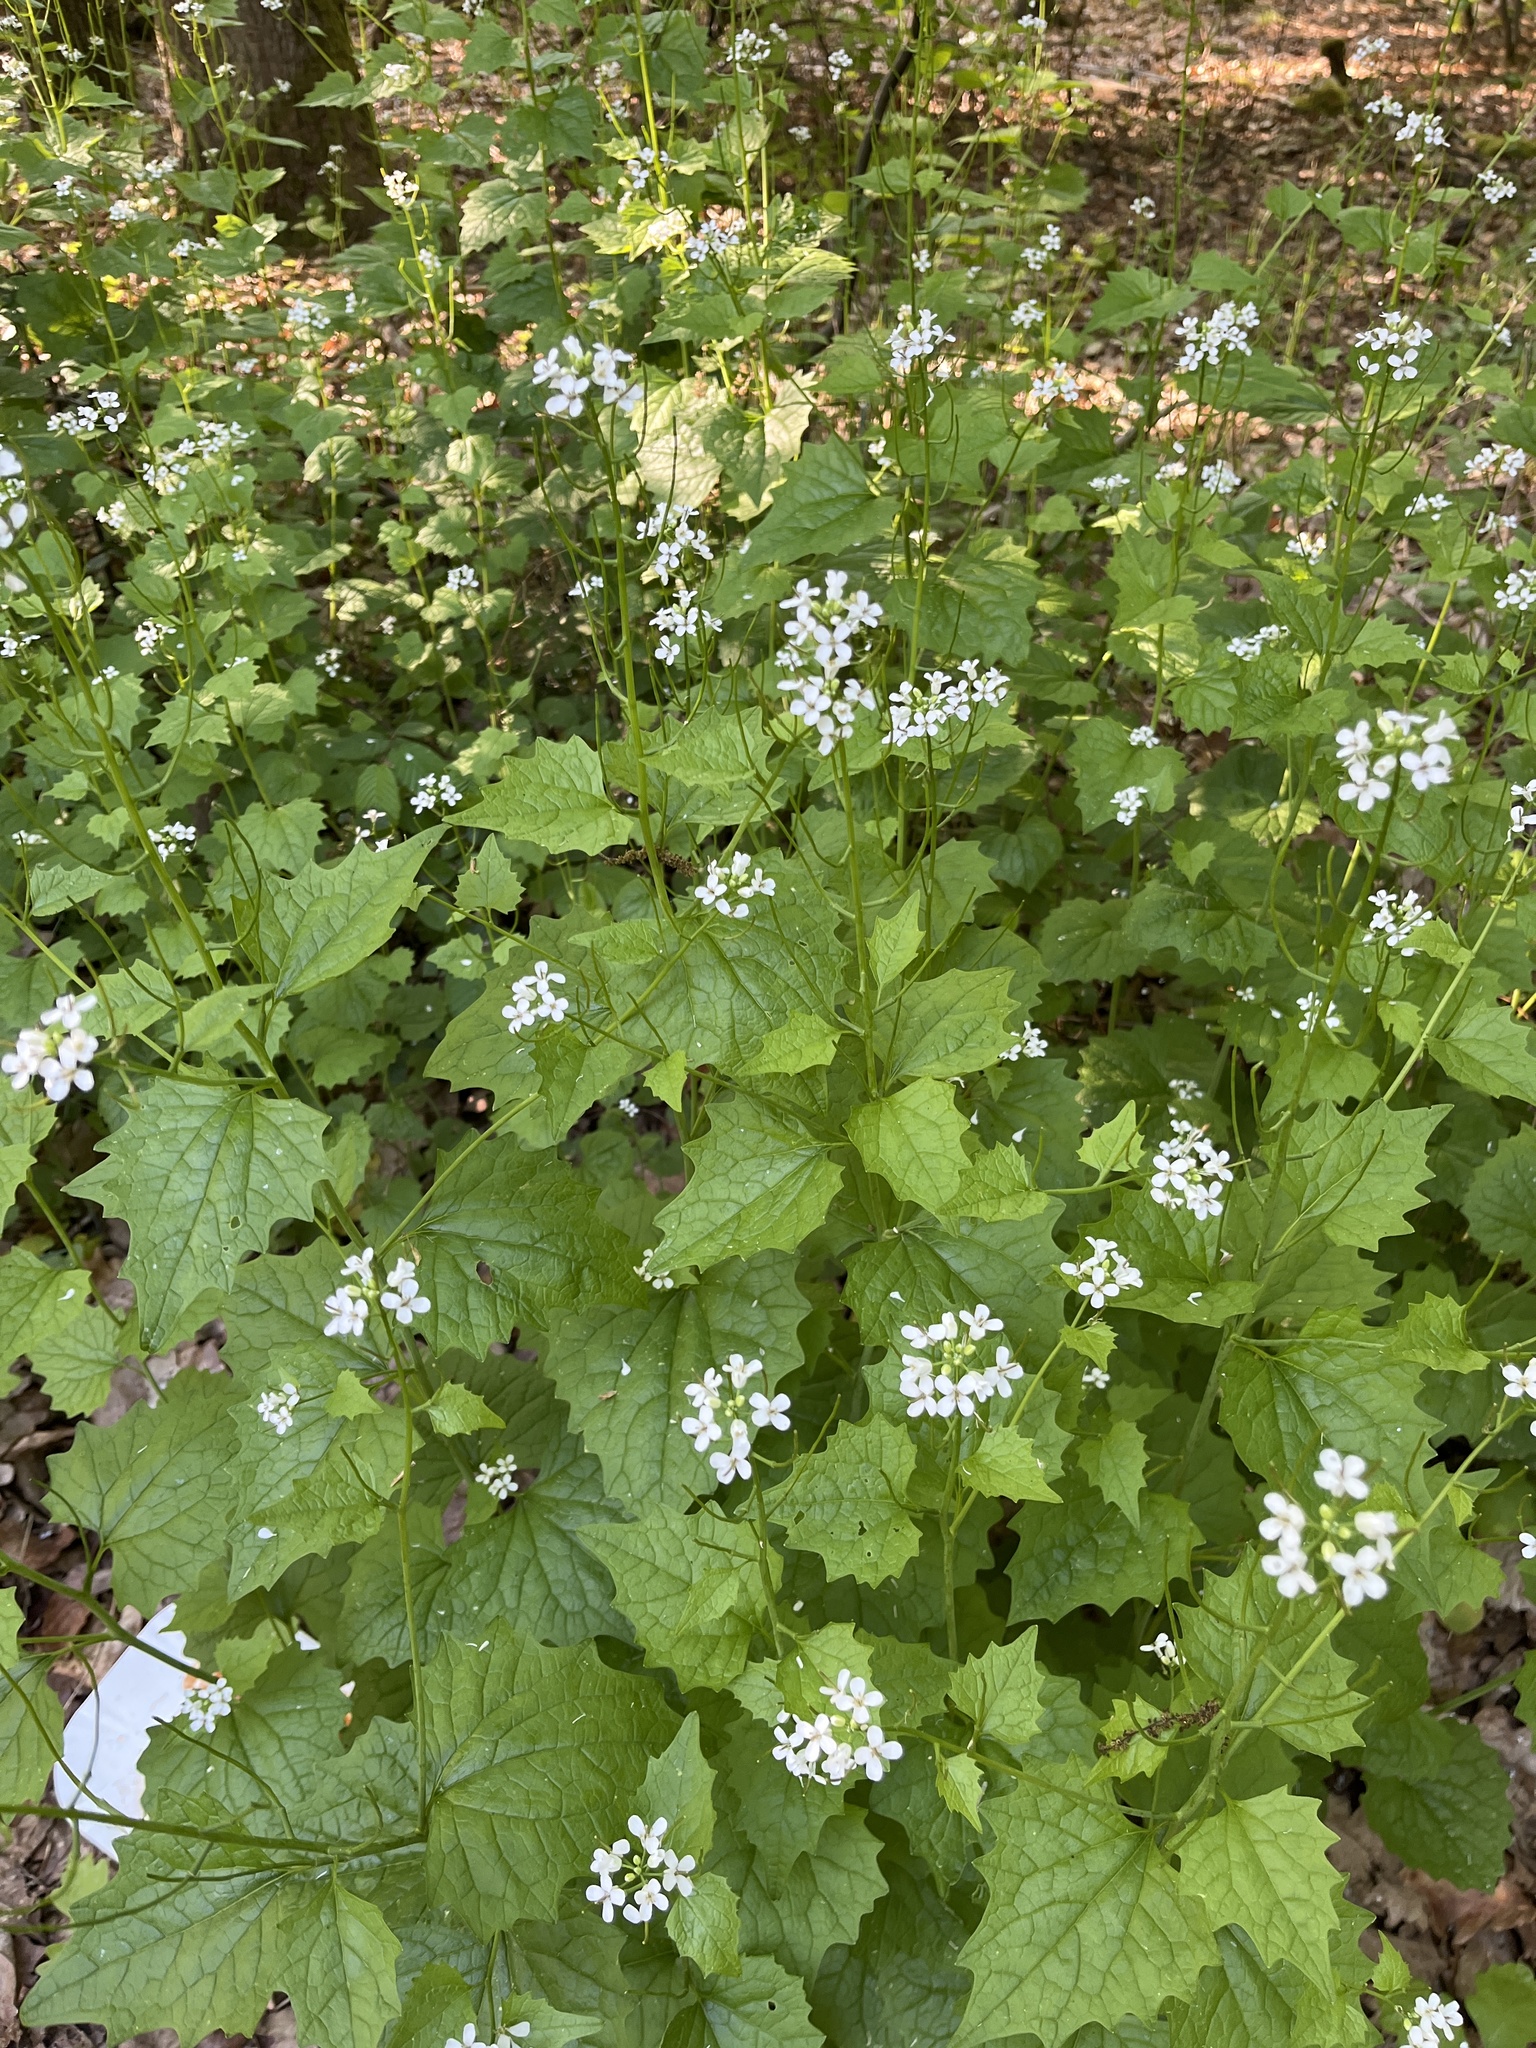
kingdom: Plantae
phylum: Tracheophyta
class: Magnoliopsida
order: Brassicales
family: Brassicaceae
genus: Alliaria
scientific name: Alliaria petiolata
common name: Garlic mustard
